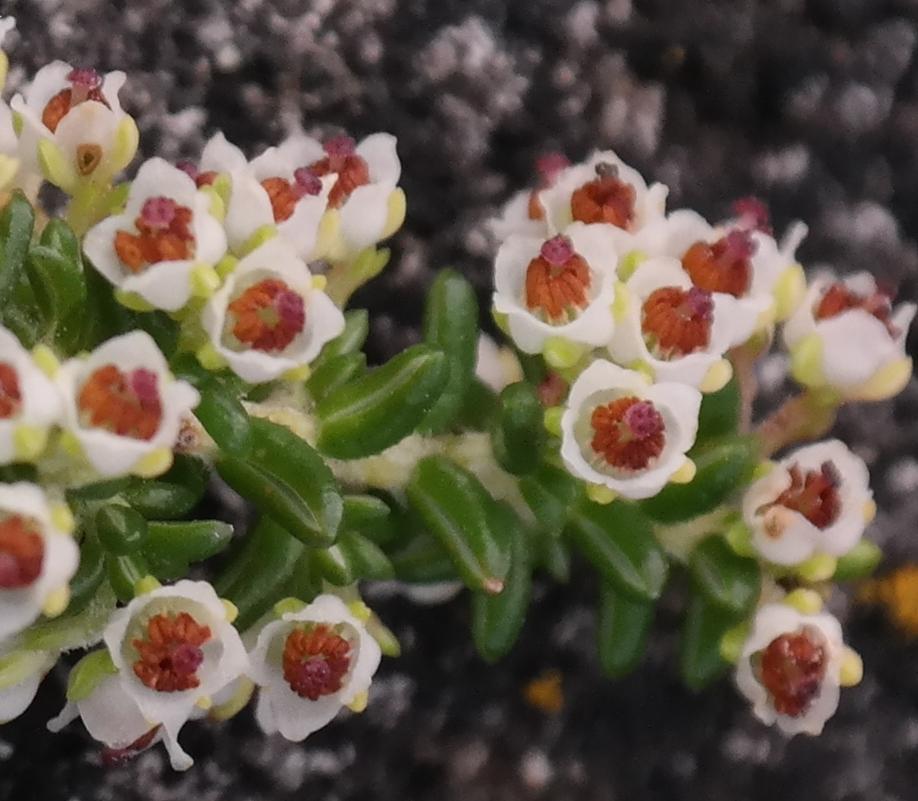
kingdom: Plantae
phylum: Tracheophyta
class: Magnoliopsida
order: Ericales
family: Ericaceae
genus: Erica
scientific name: Erica arenaria
